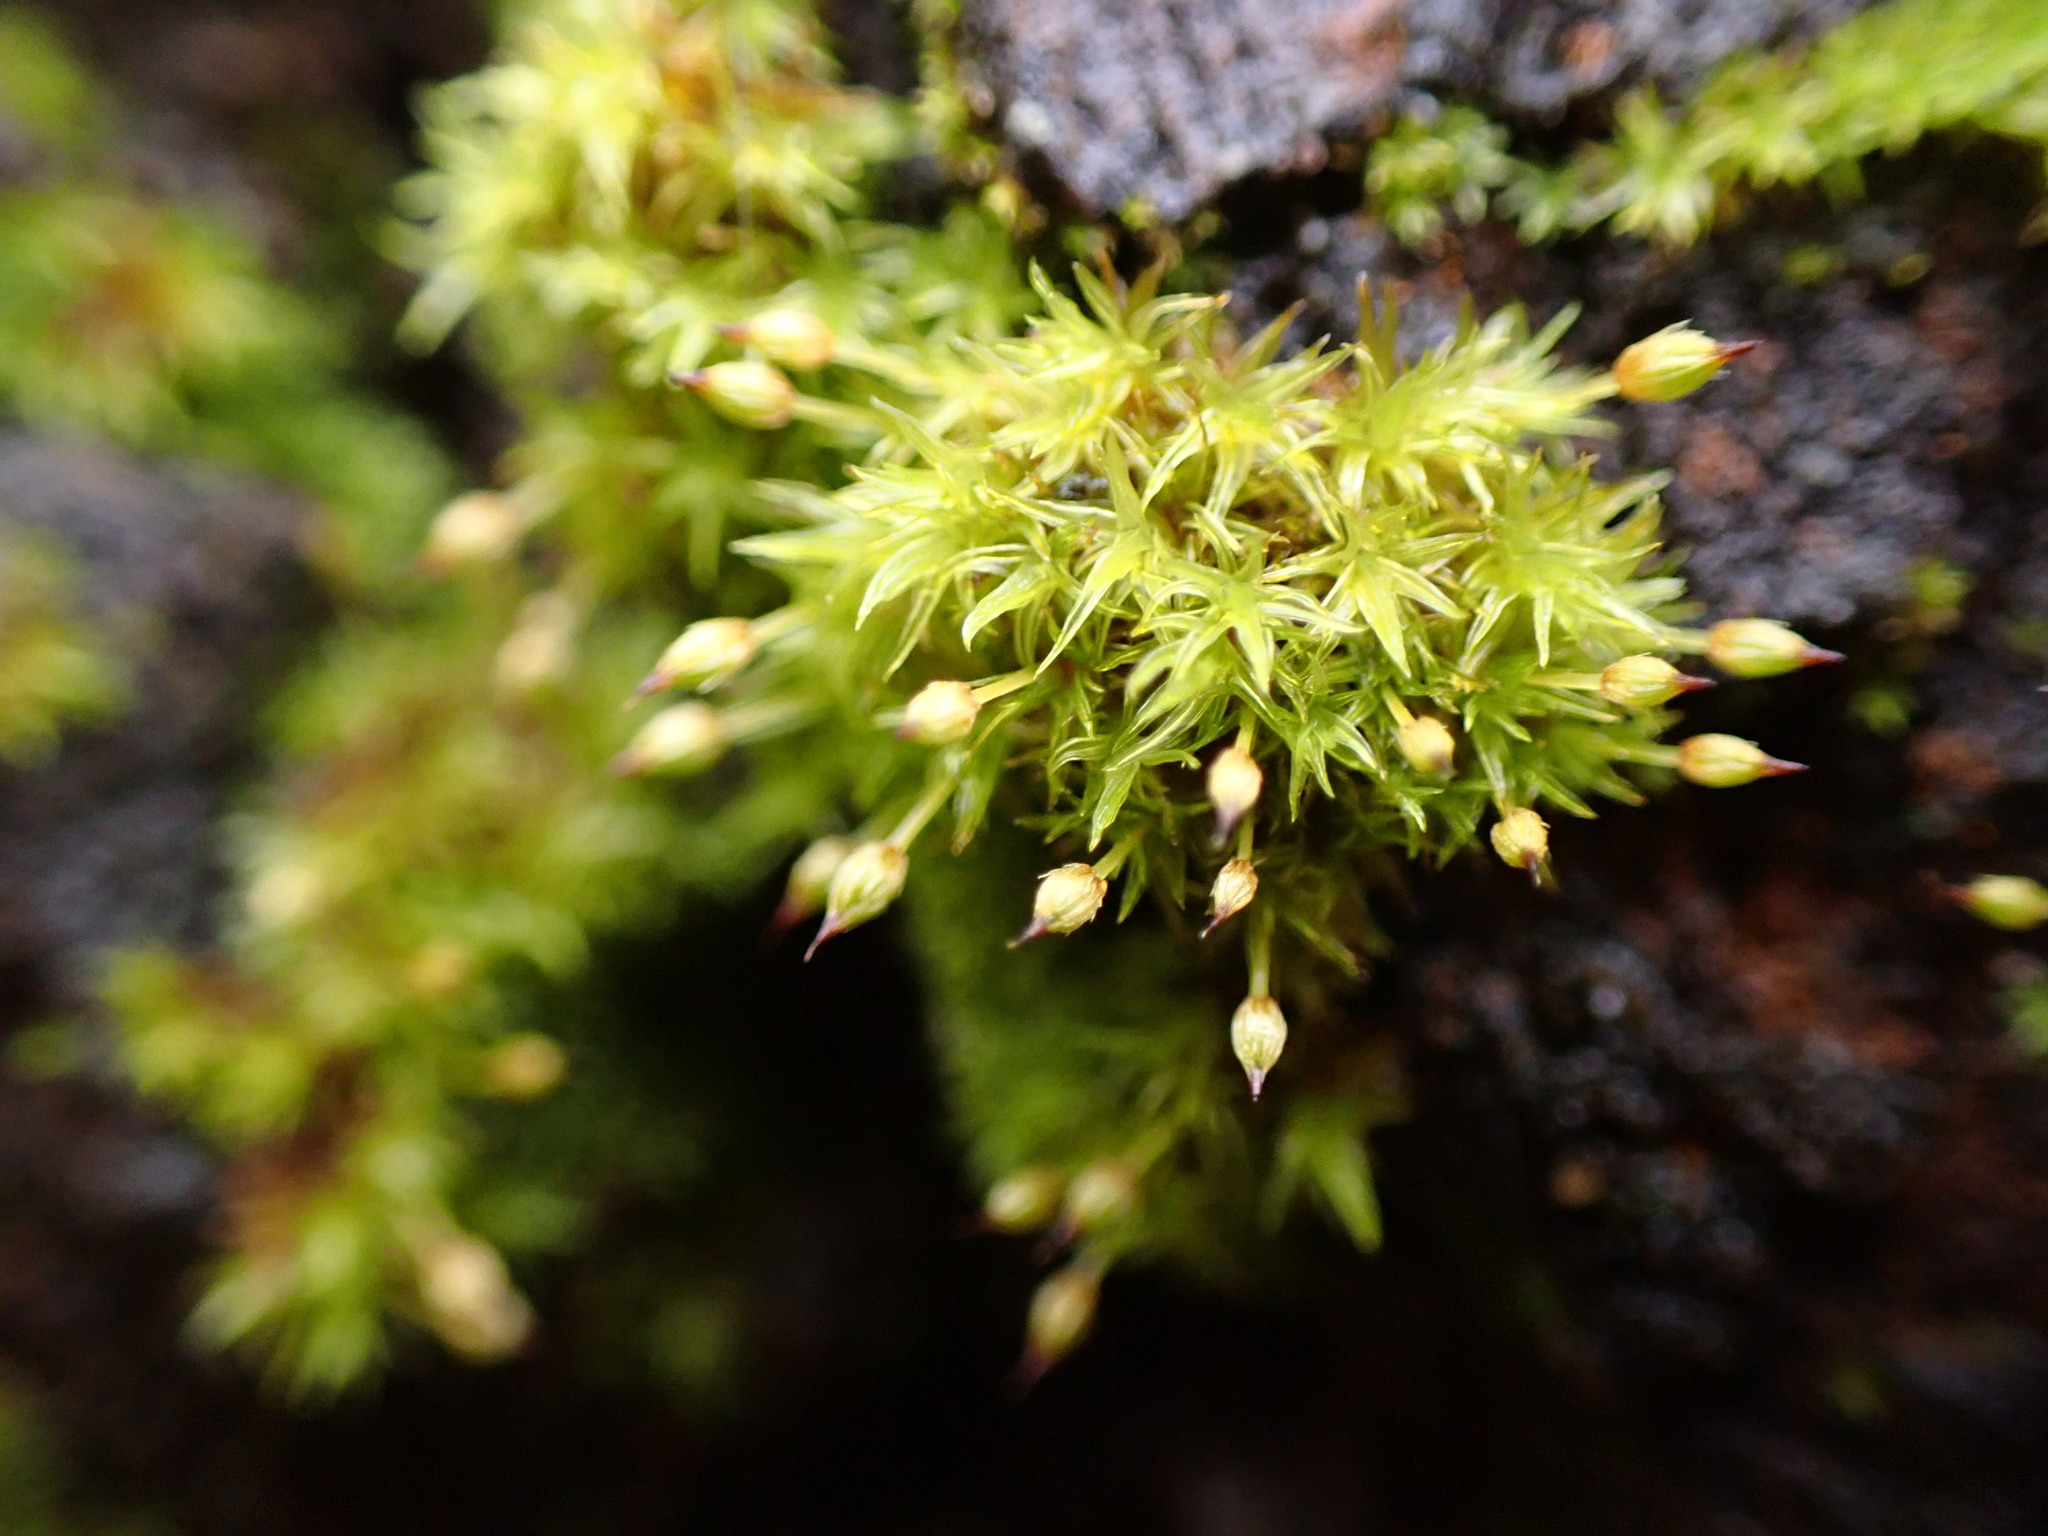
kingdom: Plantae
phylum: Bryophyta
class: Bryopsida
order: Orthotrichales
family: Orthotrichaceae
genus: Orthotrichum
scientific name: Orthotrichum pulchellum
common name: Elegant bristle-moss
